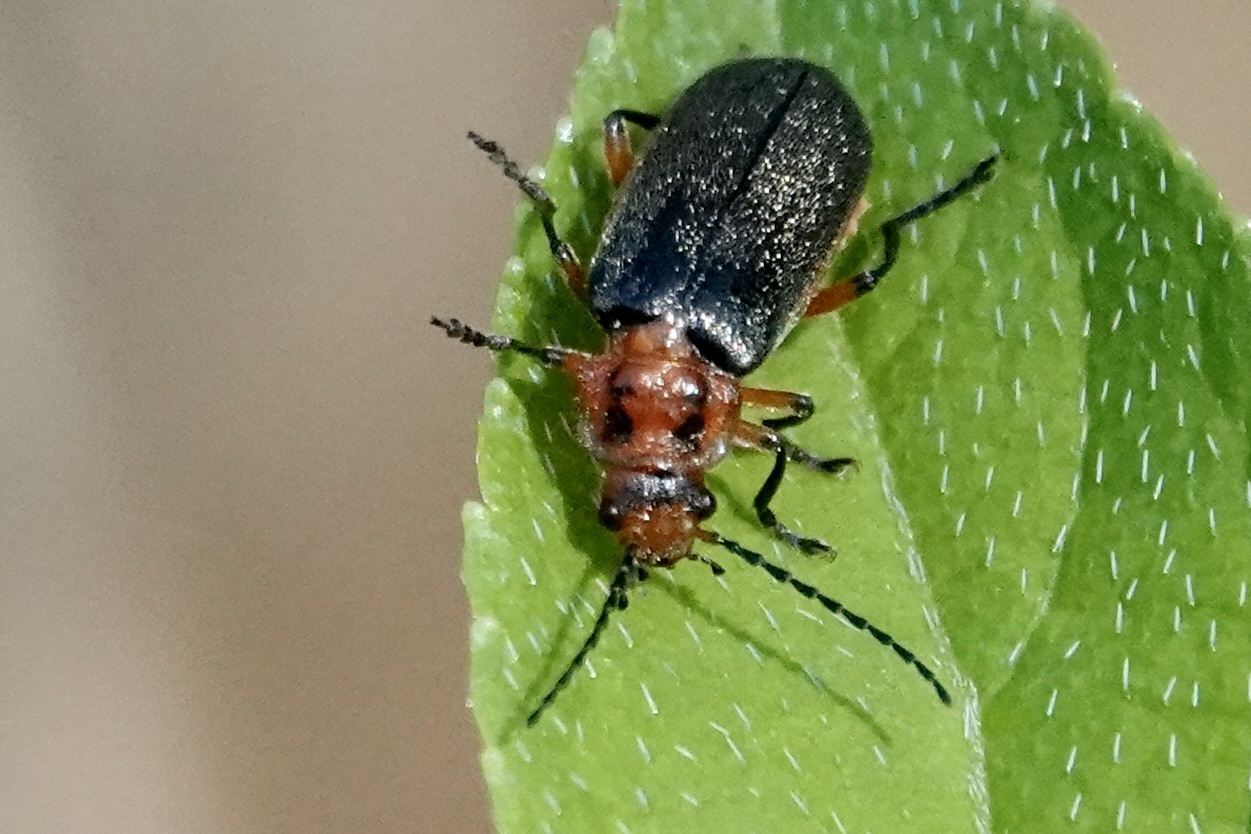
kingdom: Animalia
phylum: Arthropoda
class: Insecta
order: Coleoptera
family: Cantharidae
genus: Atalantycha
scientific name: Atalantycha bilineata
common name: Two-lined leatherwing
